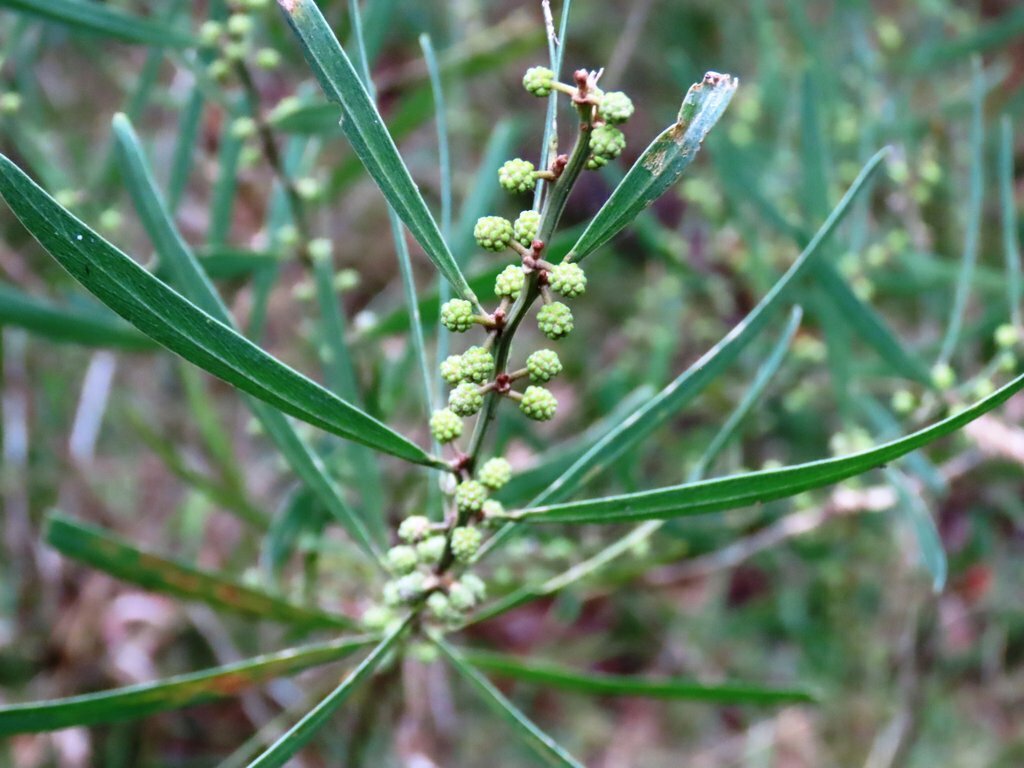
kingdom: Plantae
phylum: Tracheophyta
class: Magnoliopsida
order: Fabales
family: Fabaceae
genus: Acacia
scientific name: Acacia stricta
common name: Hop wattle
